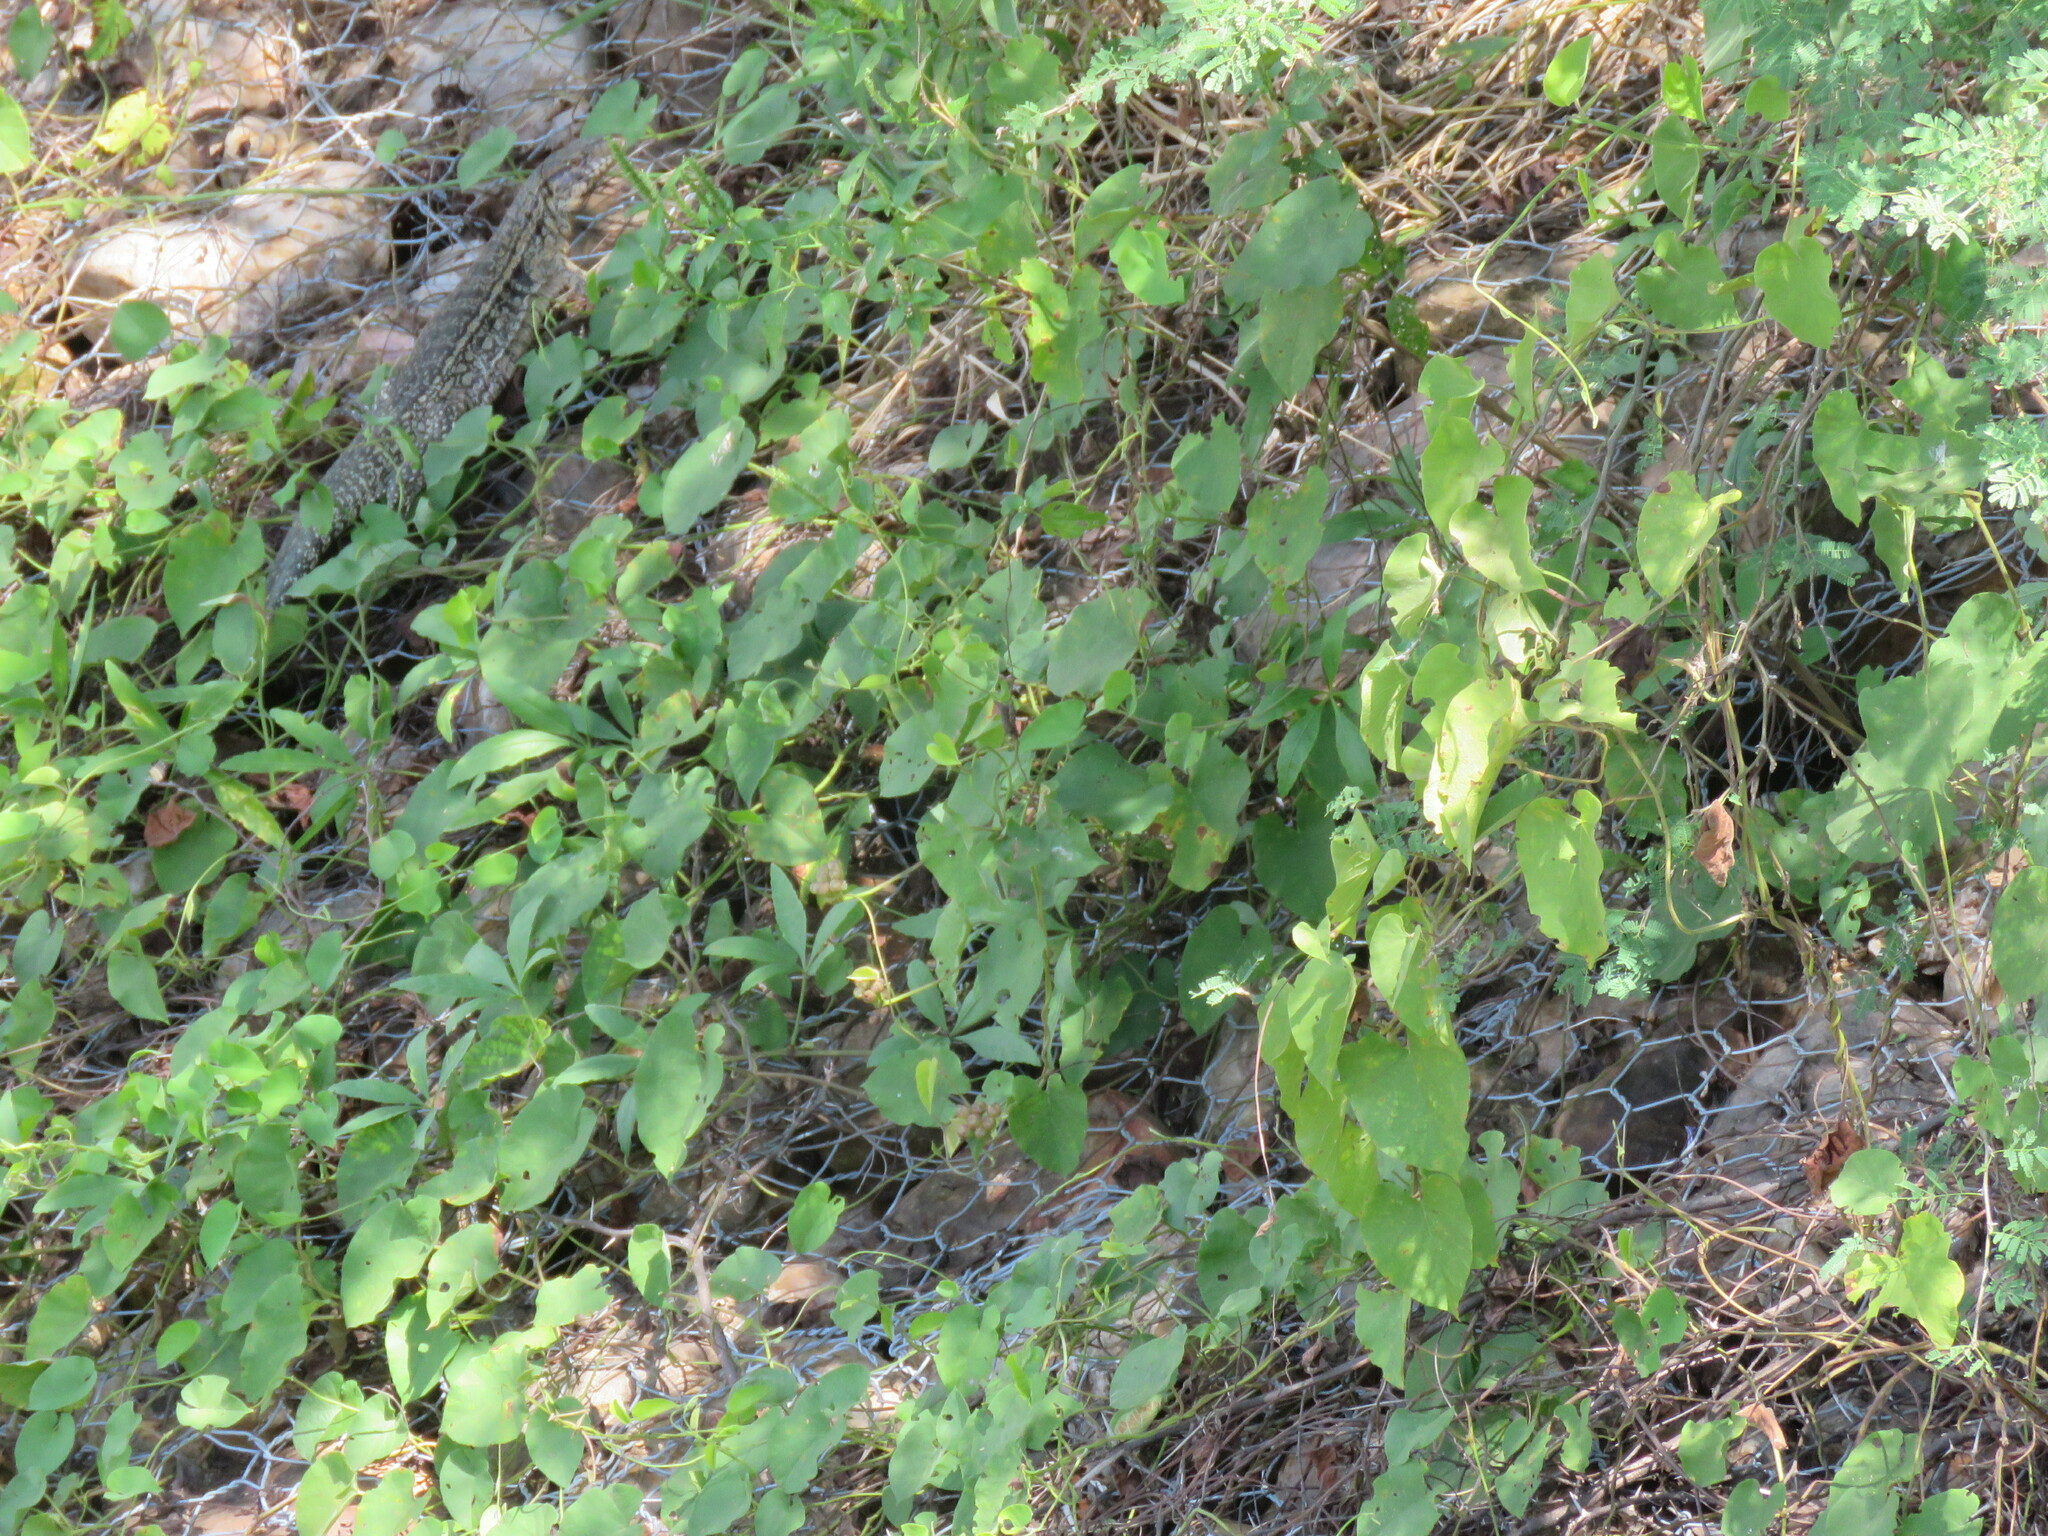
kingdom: Animalia
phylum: Chordata
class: Squamata
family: Teiidae
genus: Salvator
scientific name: Salvator merianae
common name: Argentine black and white tegu
